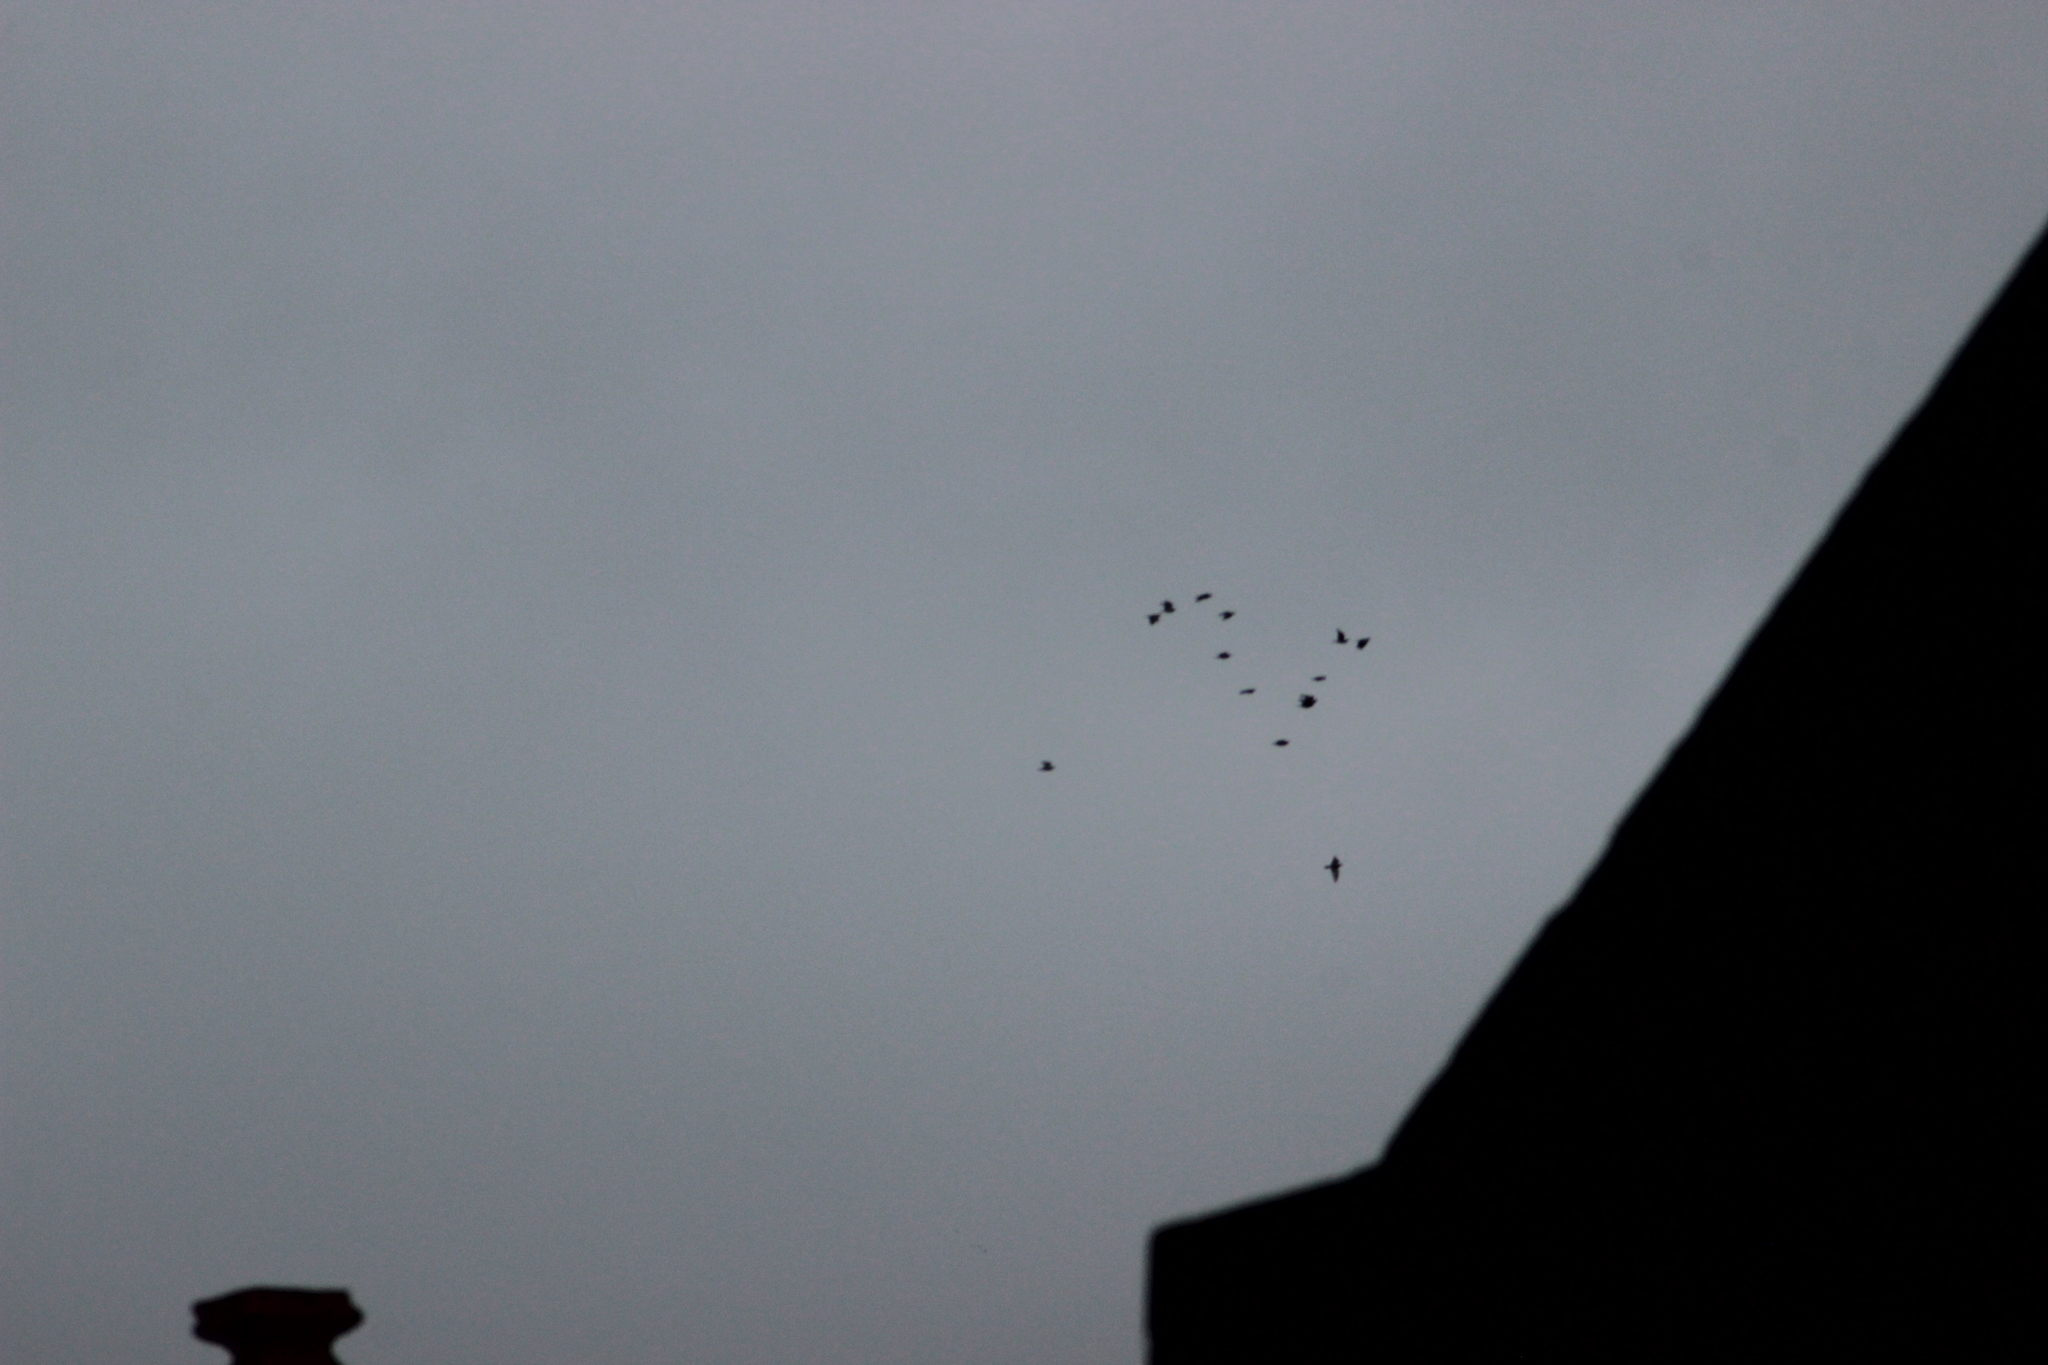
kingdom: Animalia
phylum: Chordata
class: Aves
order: Columbiformes
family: Columbidae
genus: Columba
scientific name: Columba livia
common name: Rock pigeon
